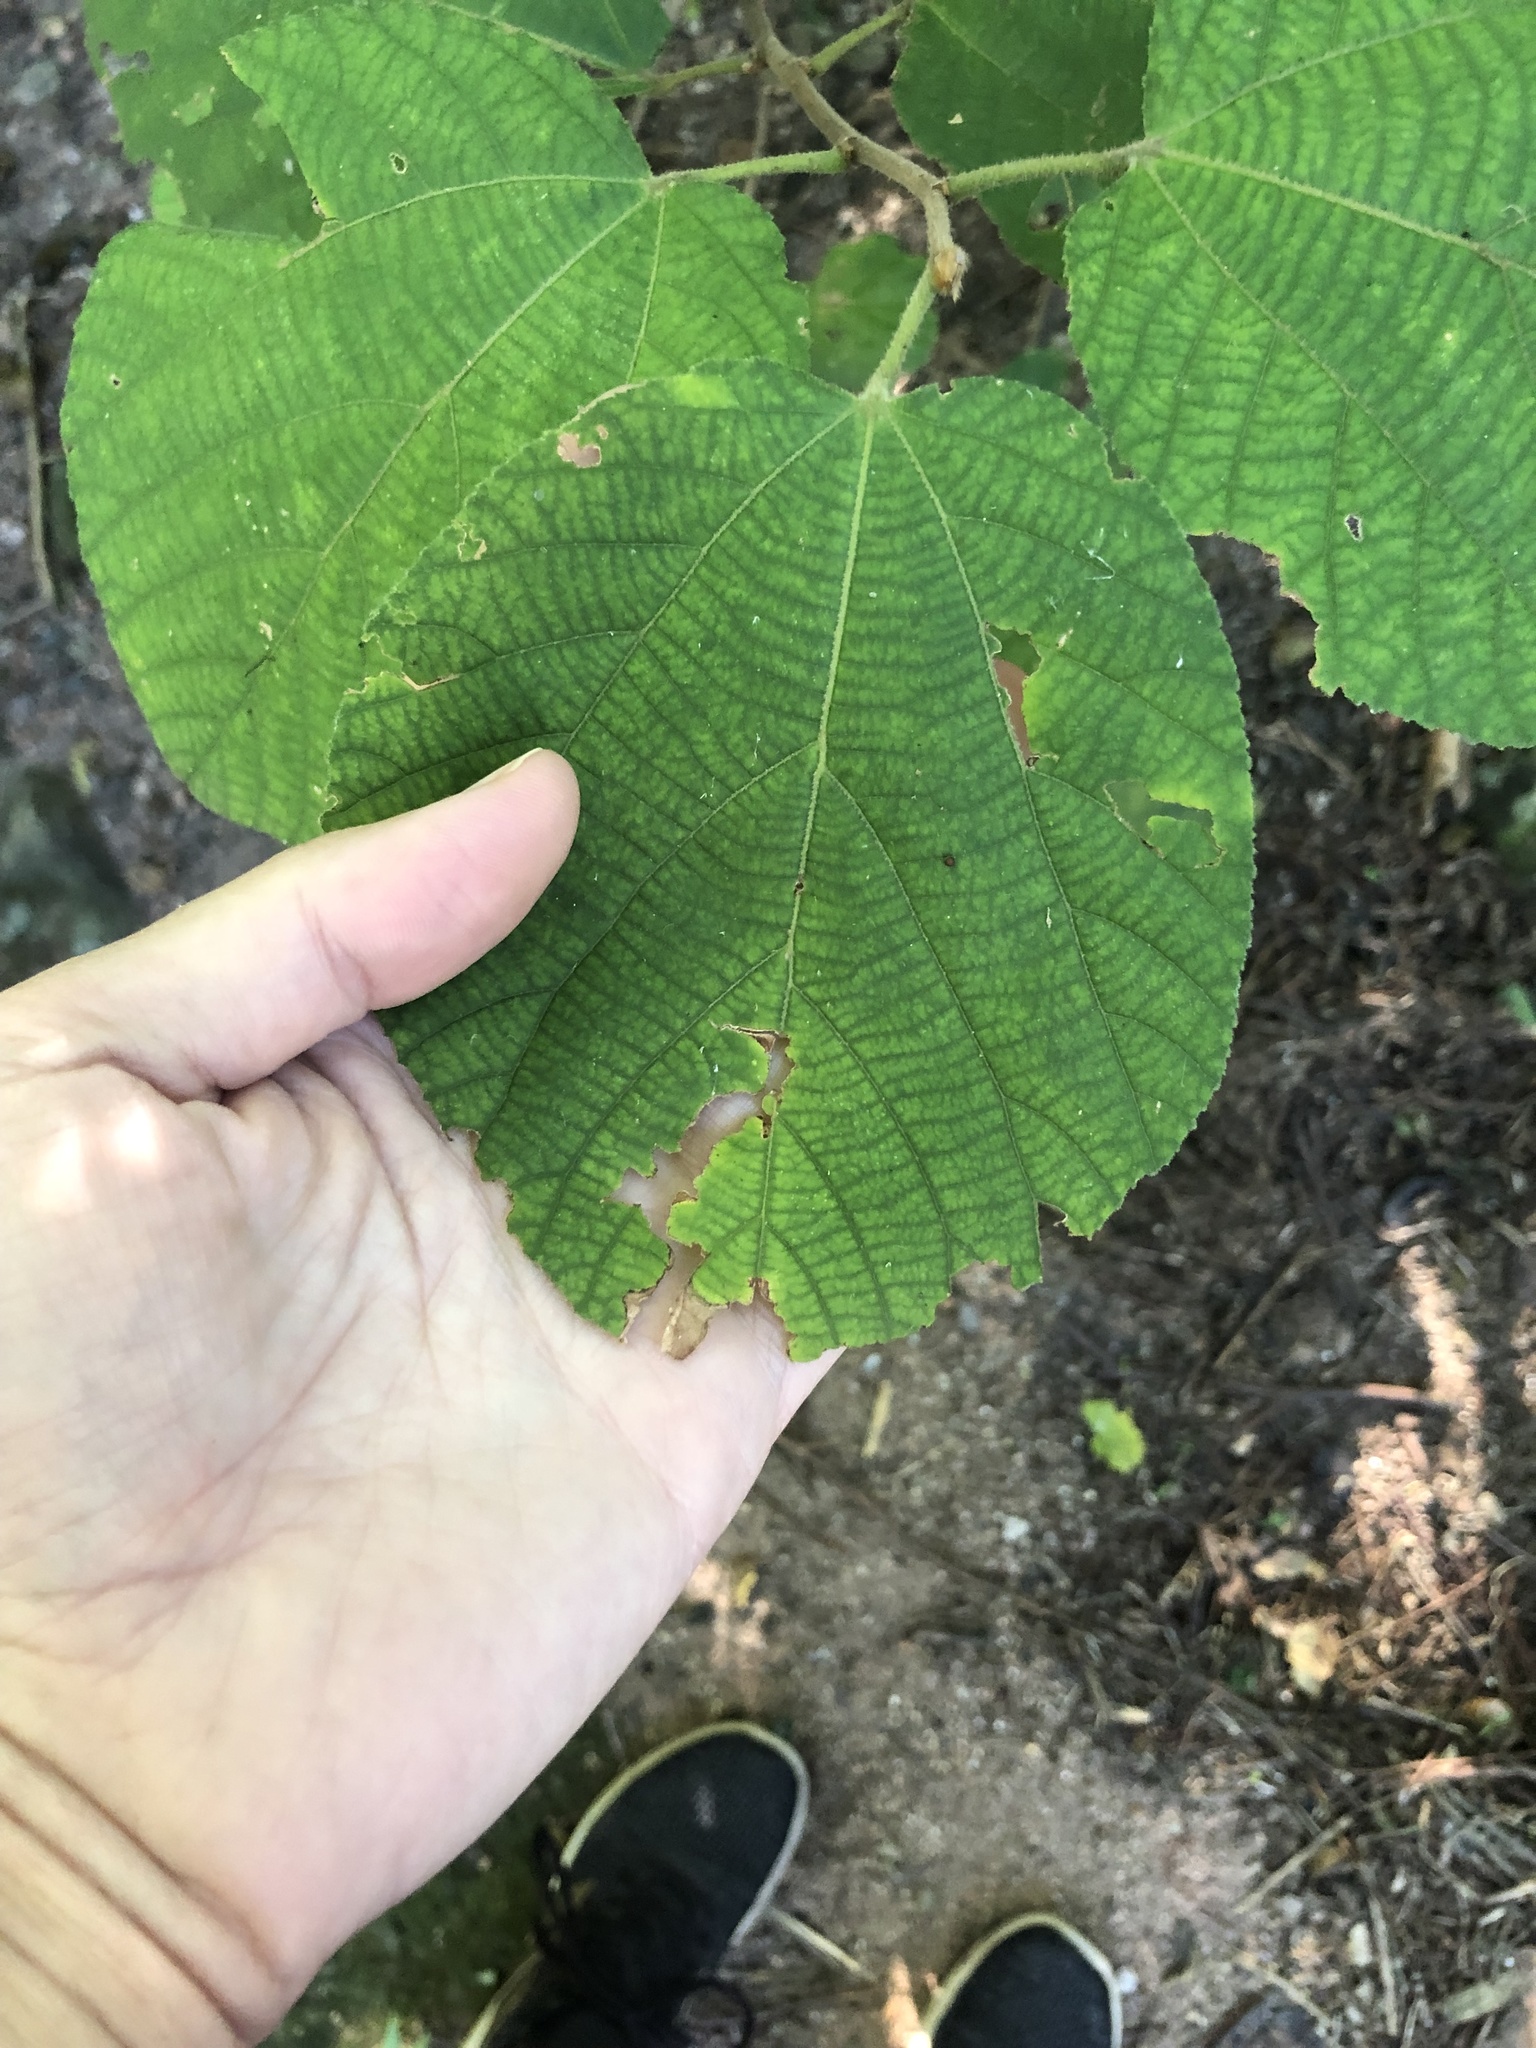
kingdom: Plantae
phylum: Tracheophyta
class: Magnoliopsida
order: Malpighiales
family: Salicaceae
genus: Trimeria
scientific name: Trimeria grandifolia
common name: Wild mulberry
